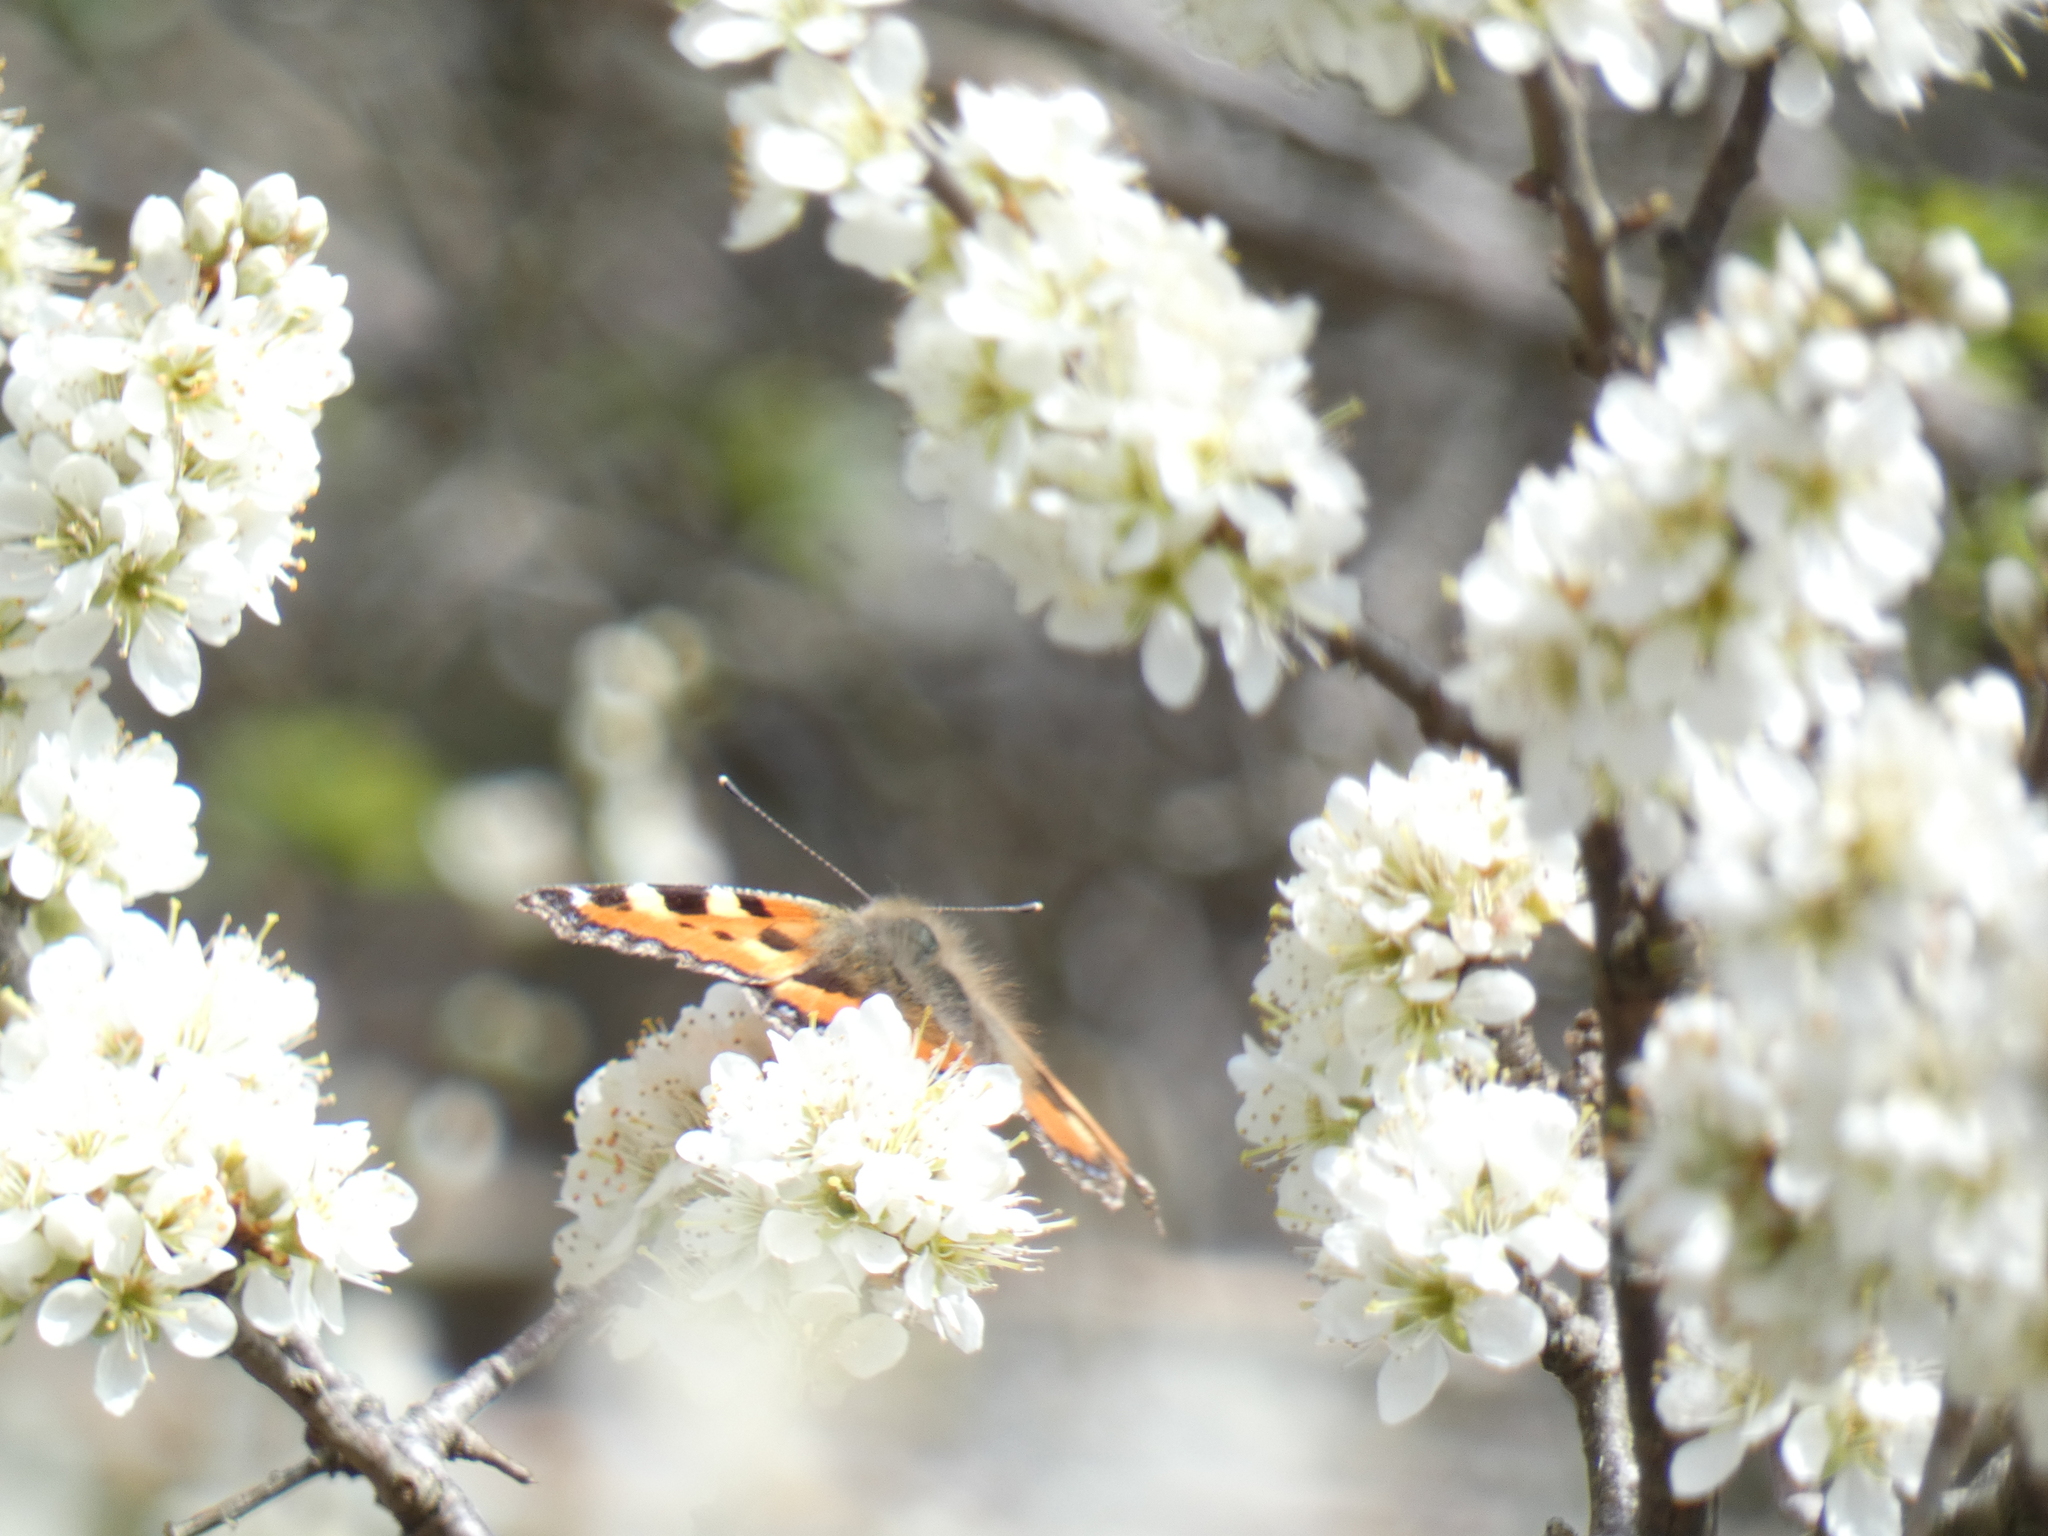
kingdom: Animalia
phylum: Arthropoda
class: Insecta
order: Lepidoptera
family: Nymphalidae
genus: Aglais
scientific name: Aglais urticae
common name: Small tortoiseshell
